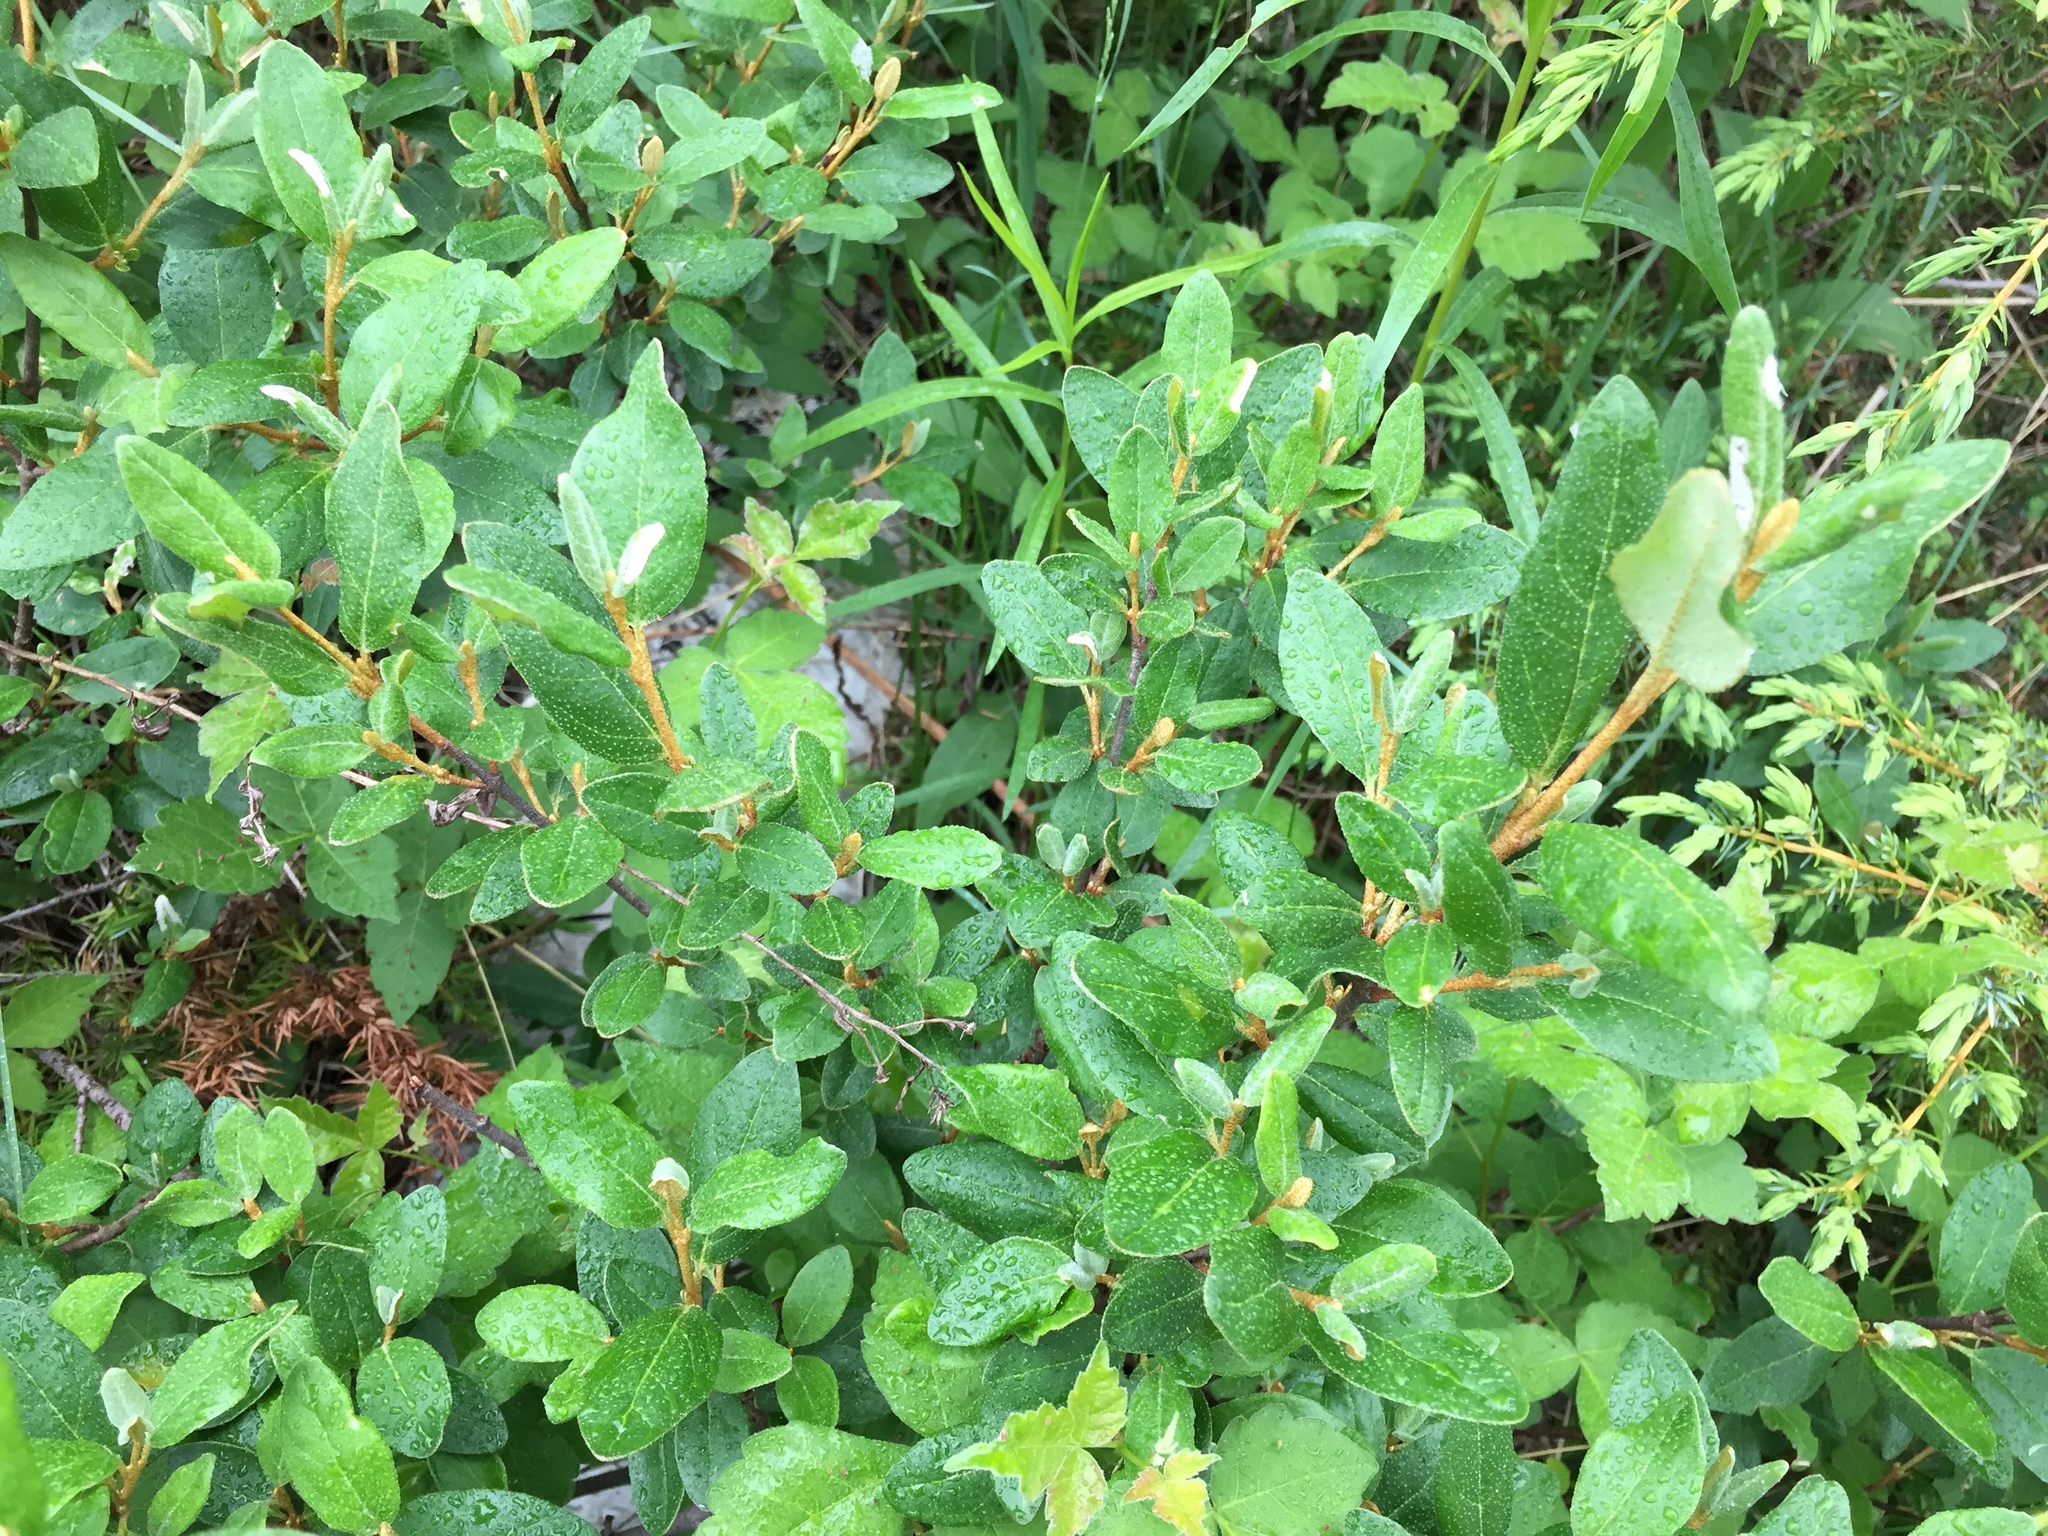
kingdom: Plantae
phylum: Tracheophyta
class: Magnoliopsida
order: Rosales
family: Elaeagnaceae
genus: Shepherdia
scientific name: Shepherdia canadensis
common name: Soapberry
